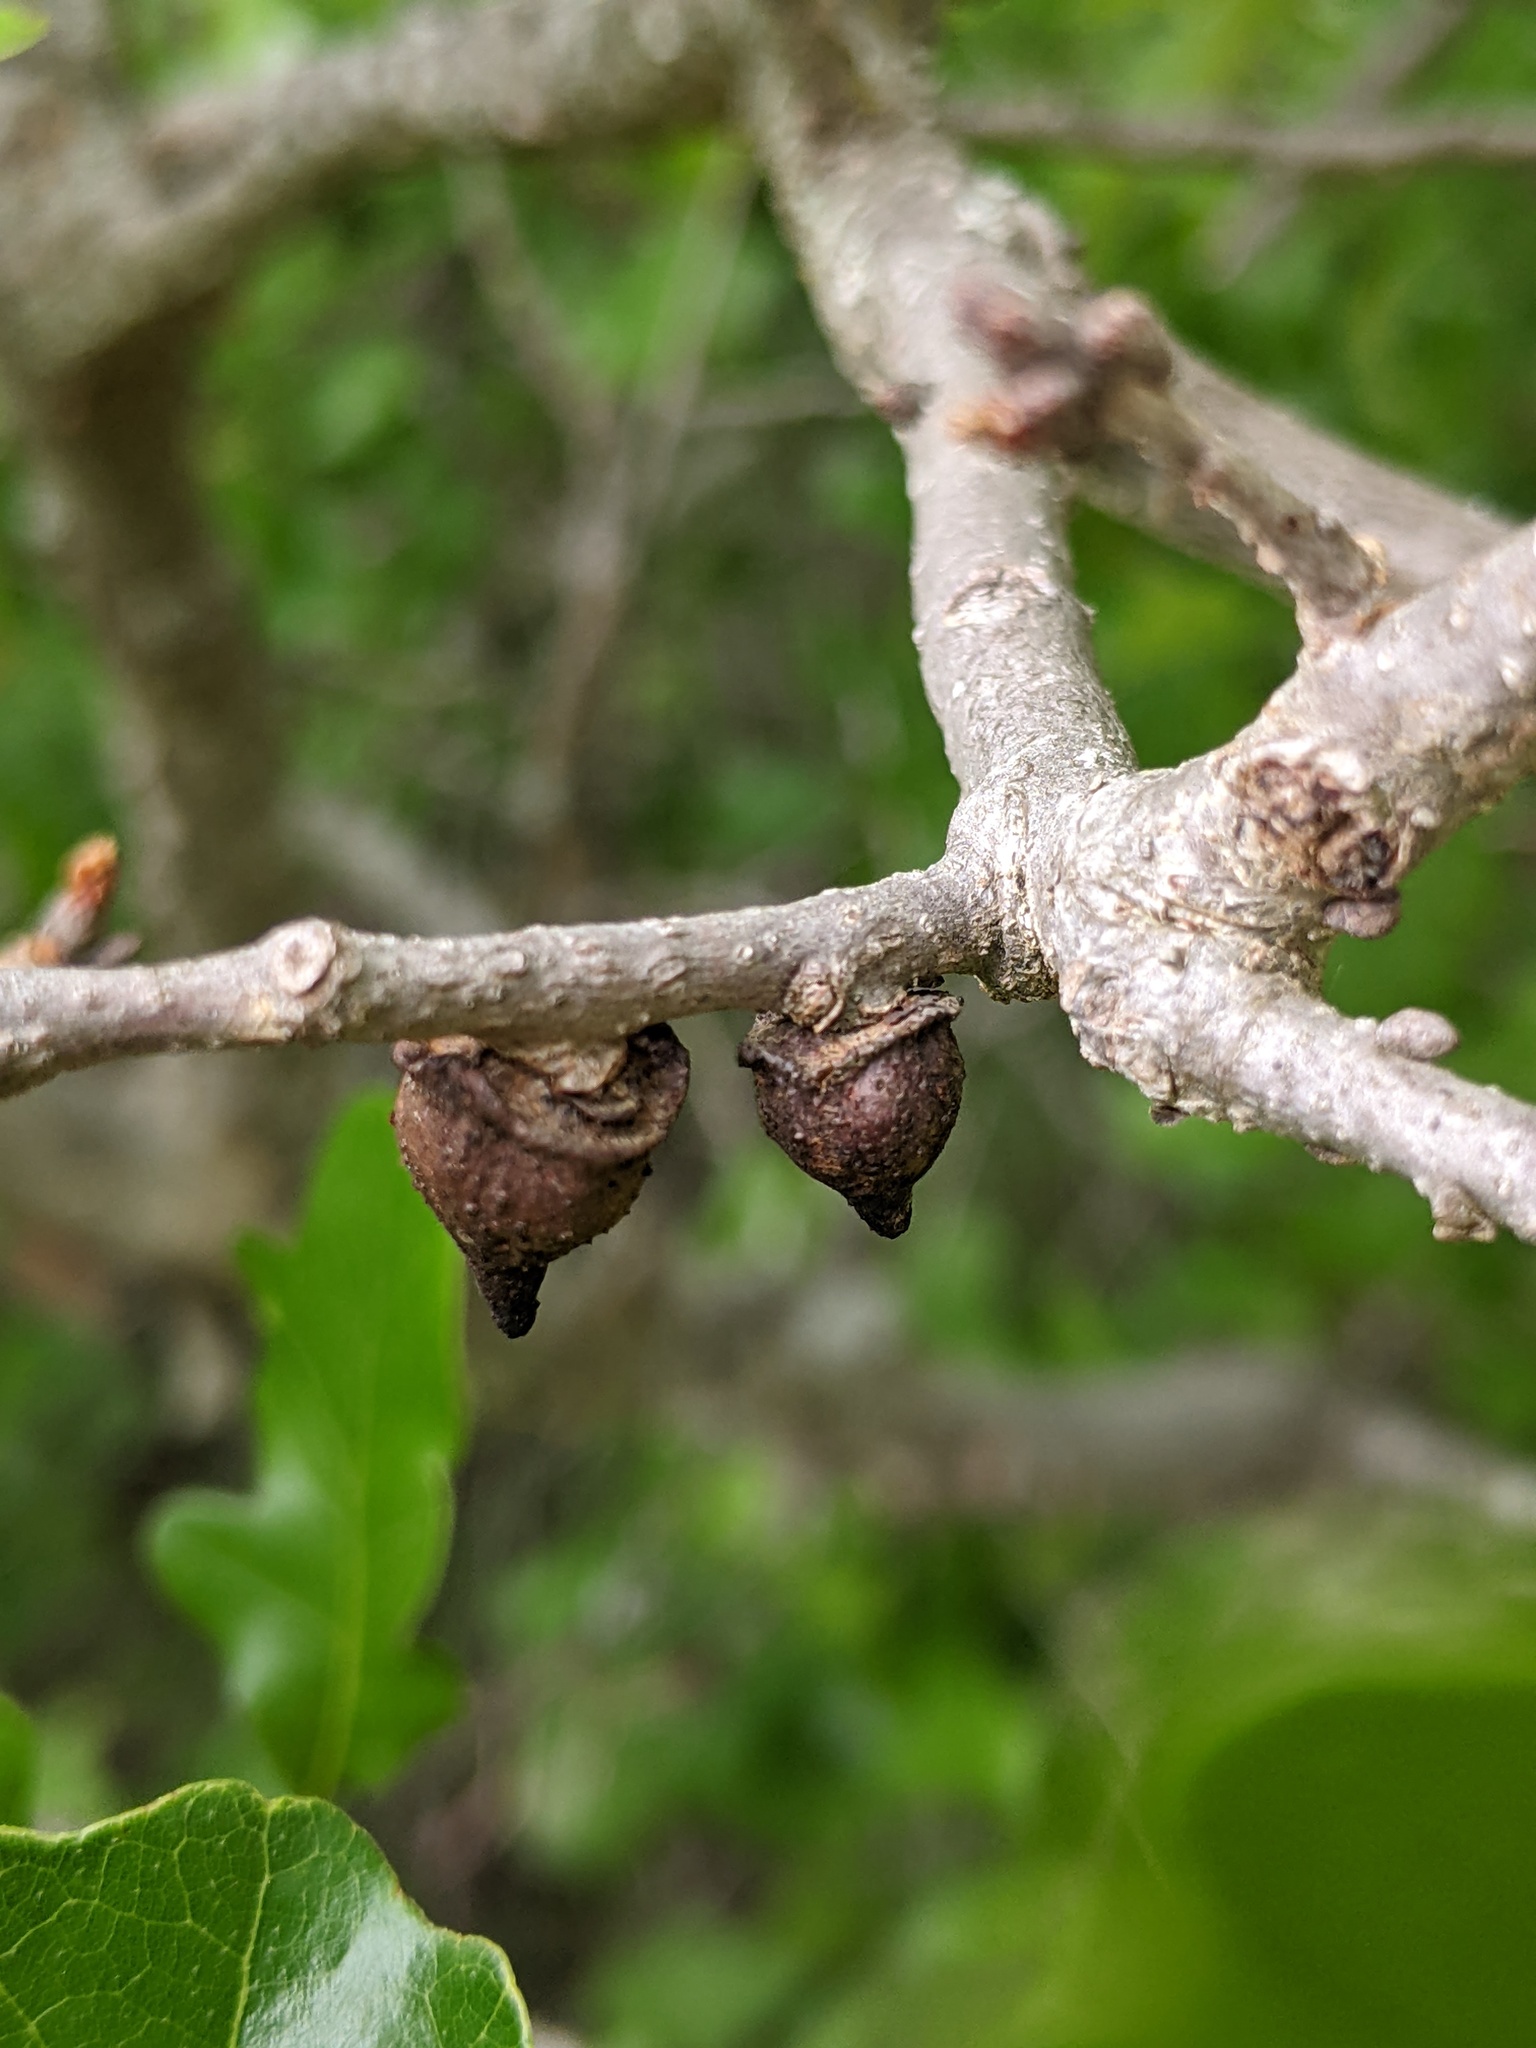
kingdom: Animalia
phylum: Arthropoda
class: Insecta
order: Hymenoptera
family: Cynipidae
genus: Disholcaspis
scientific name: Disholcaspis
